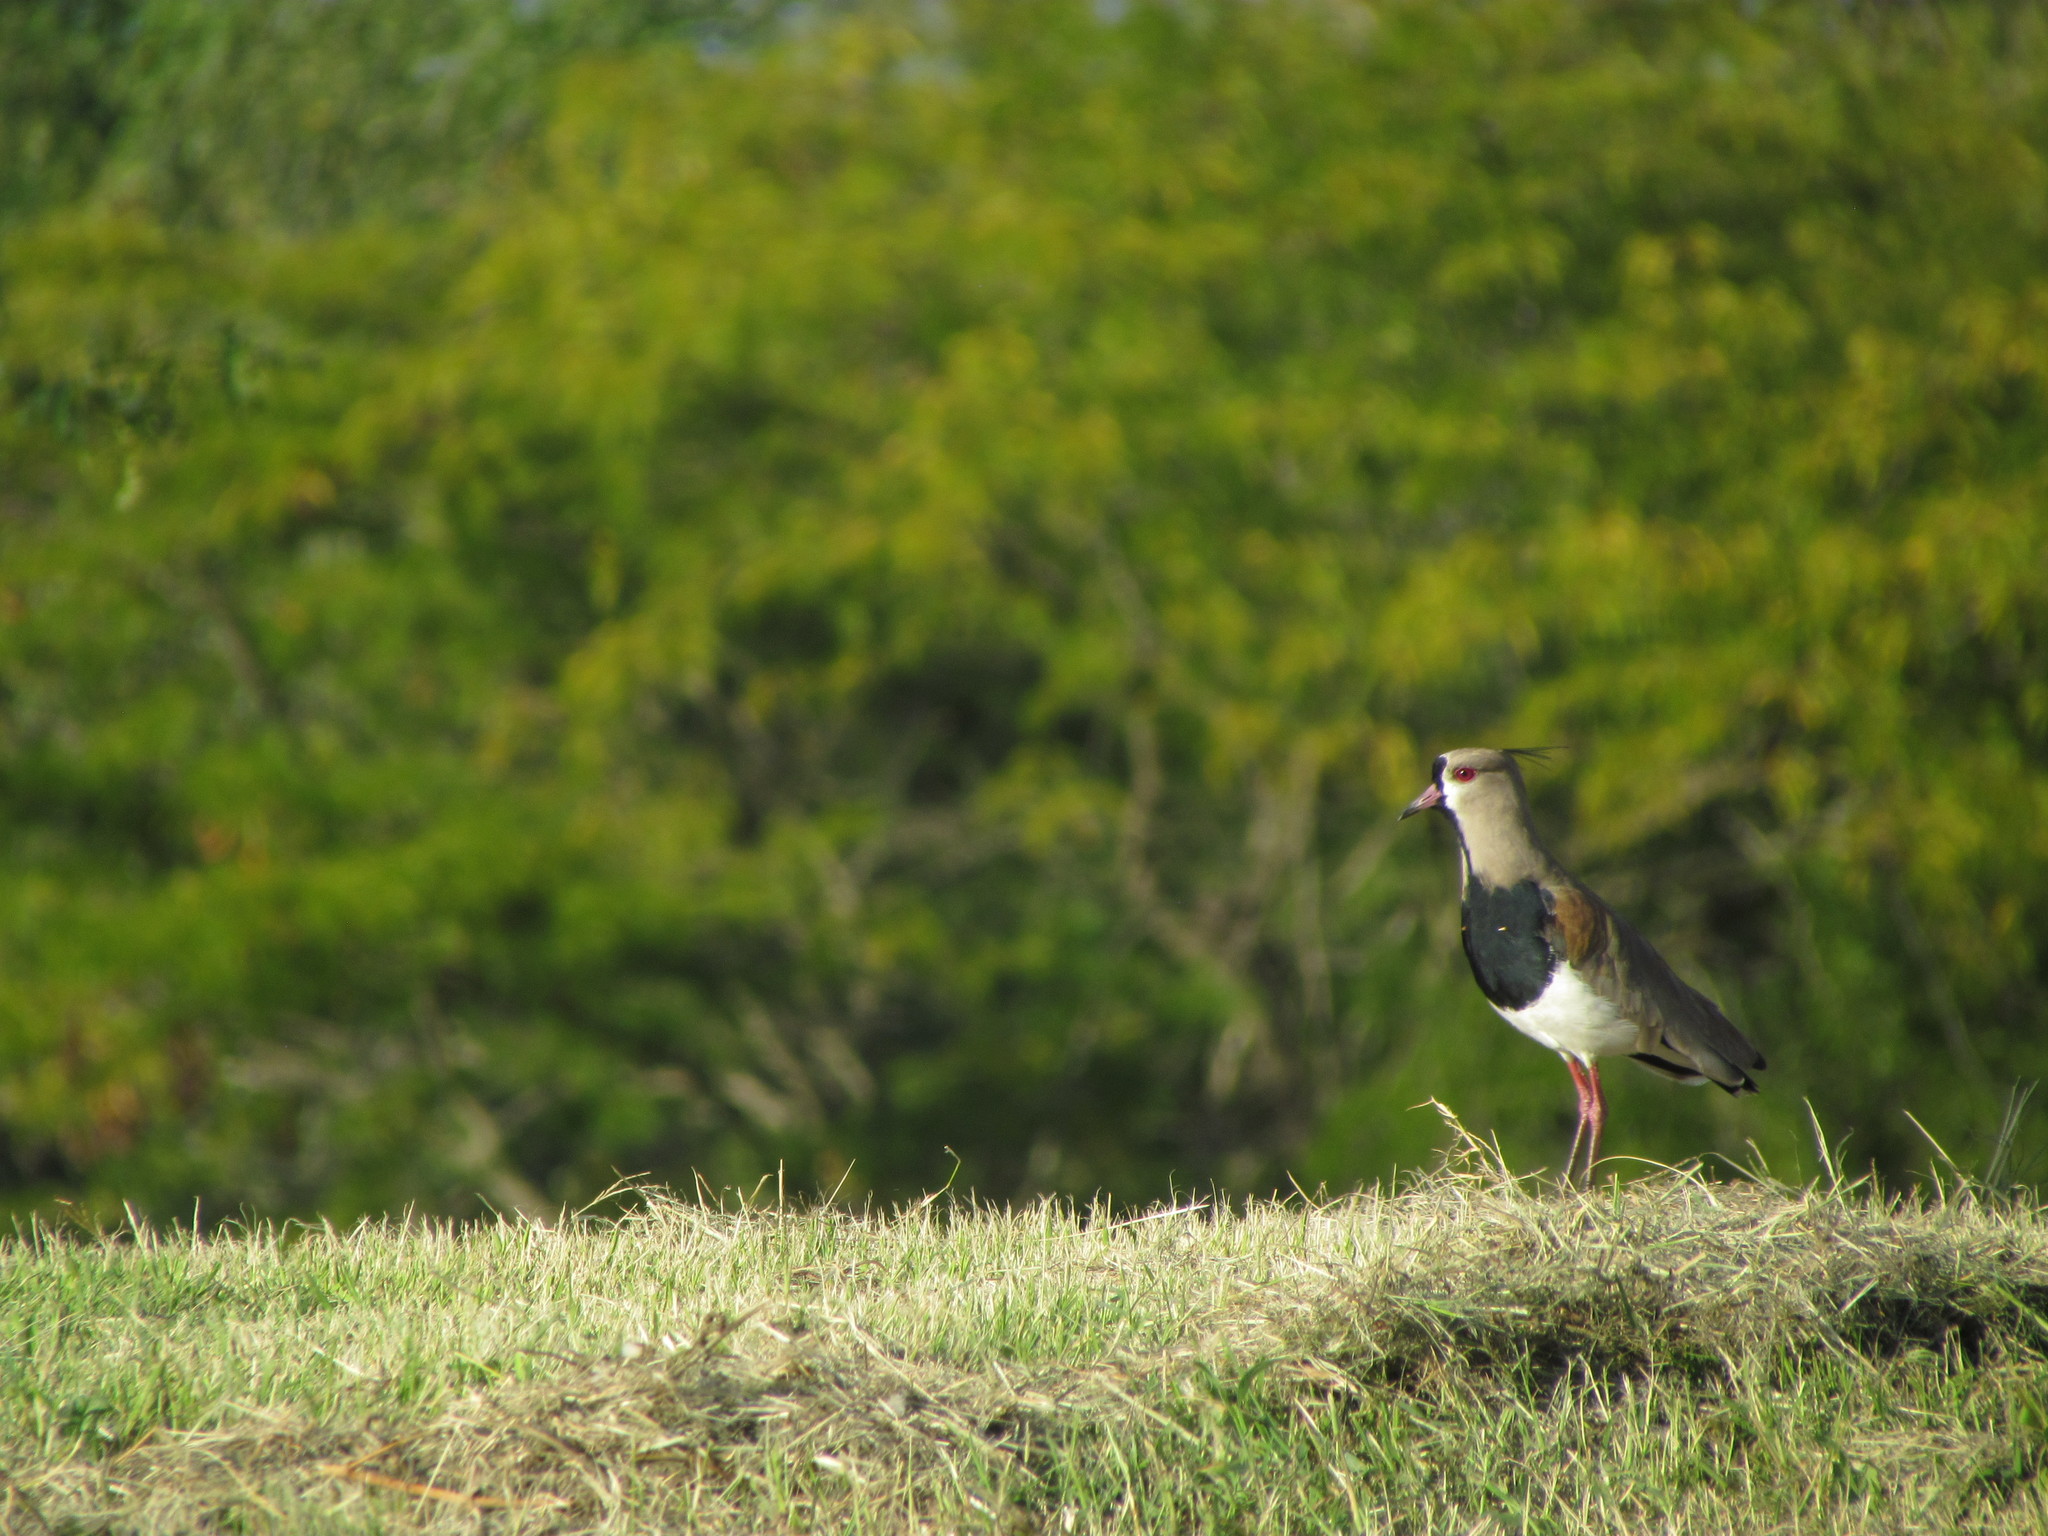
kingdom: Animalia
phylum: Chordata
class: Aves
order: Charadriiformes
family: Charadriidae
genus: Vanellus
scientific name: Vanellus chilensis
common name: Southern lapwing
